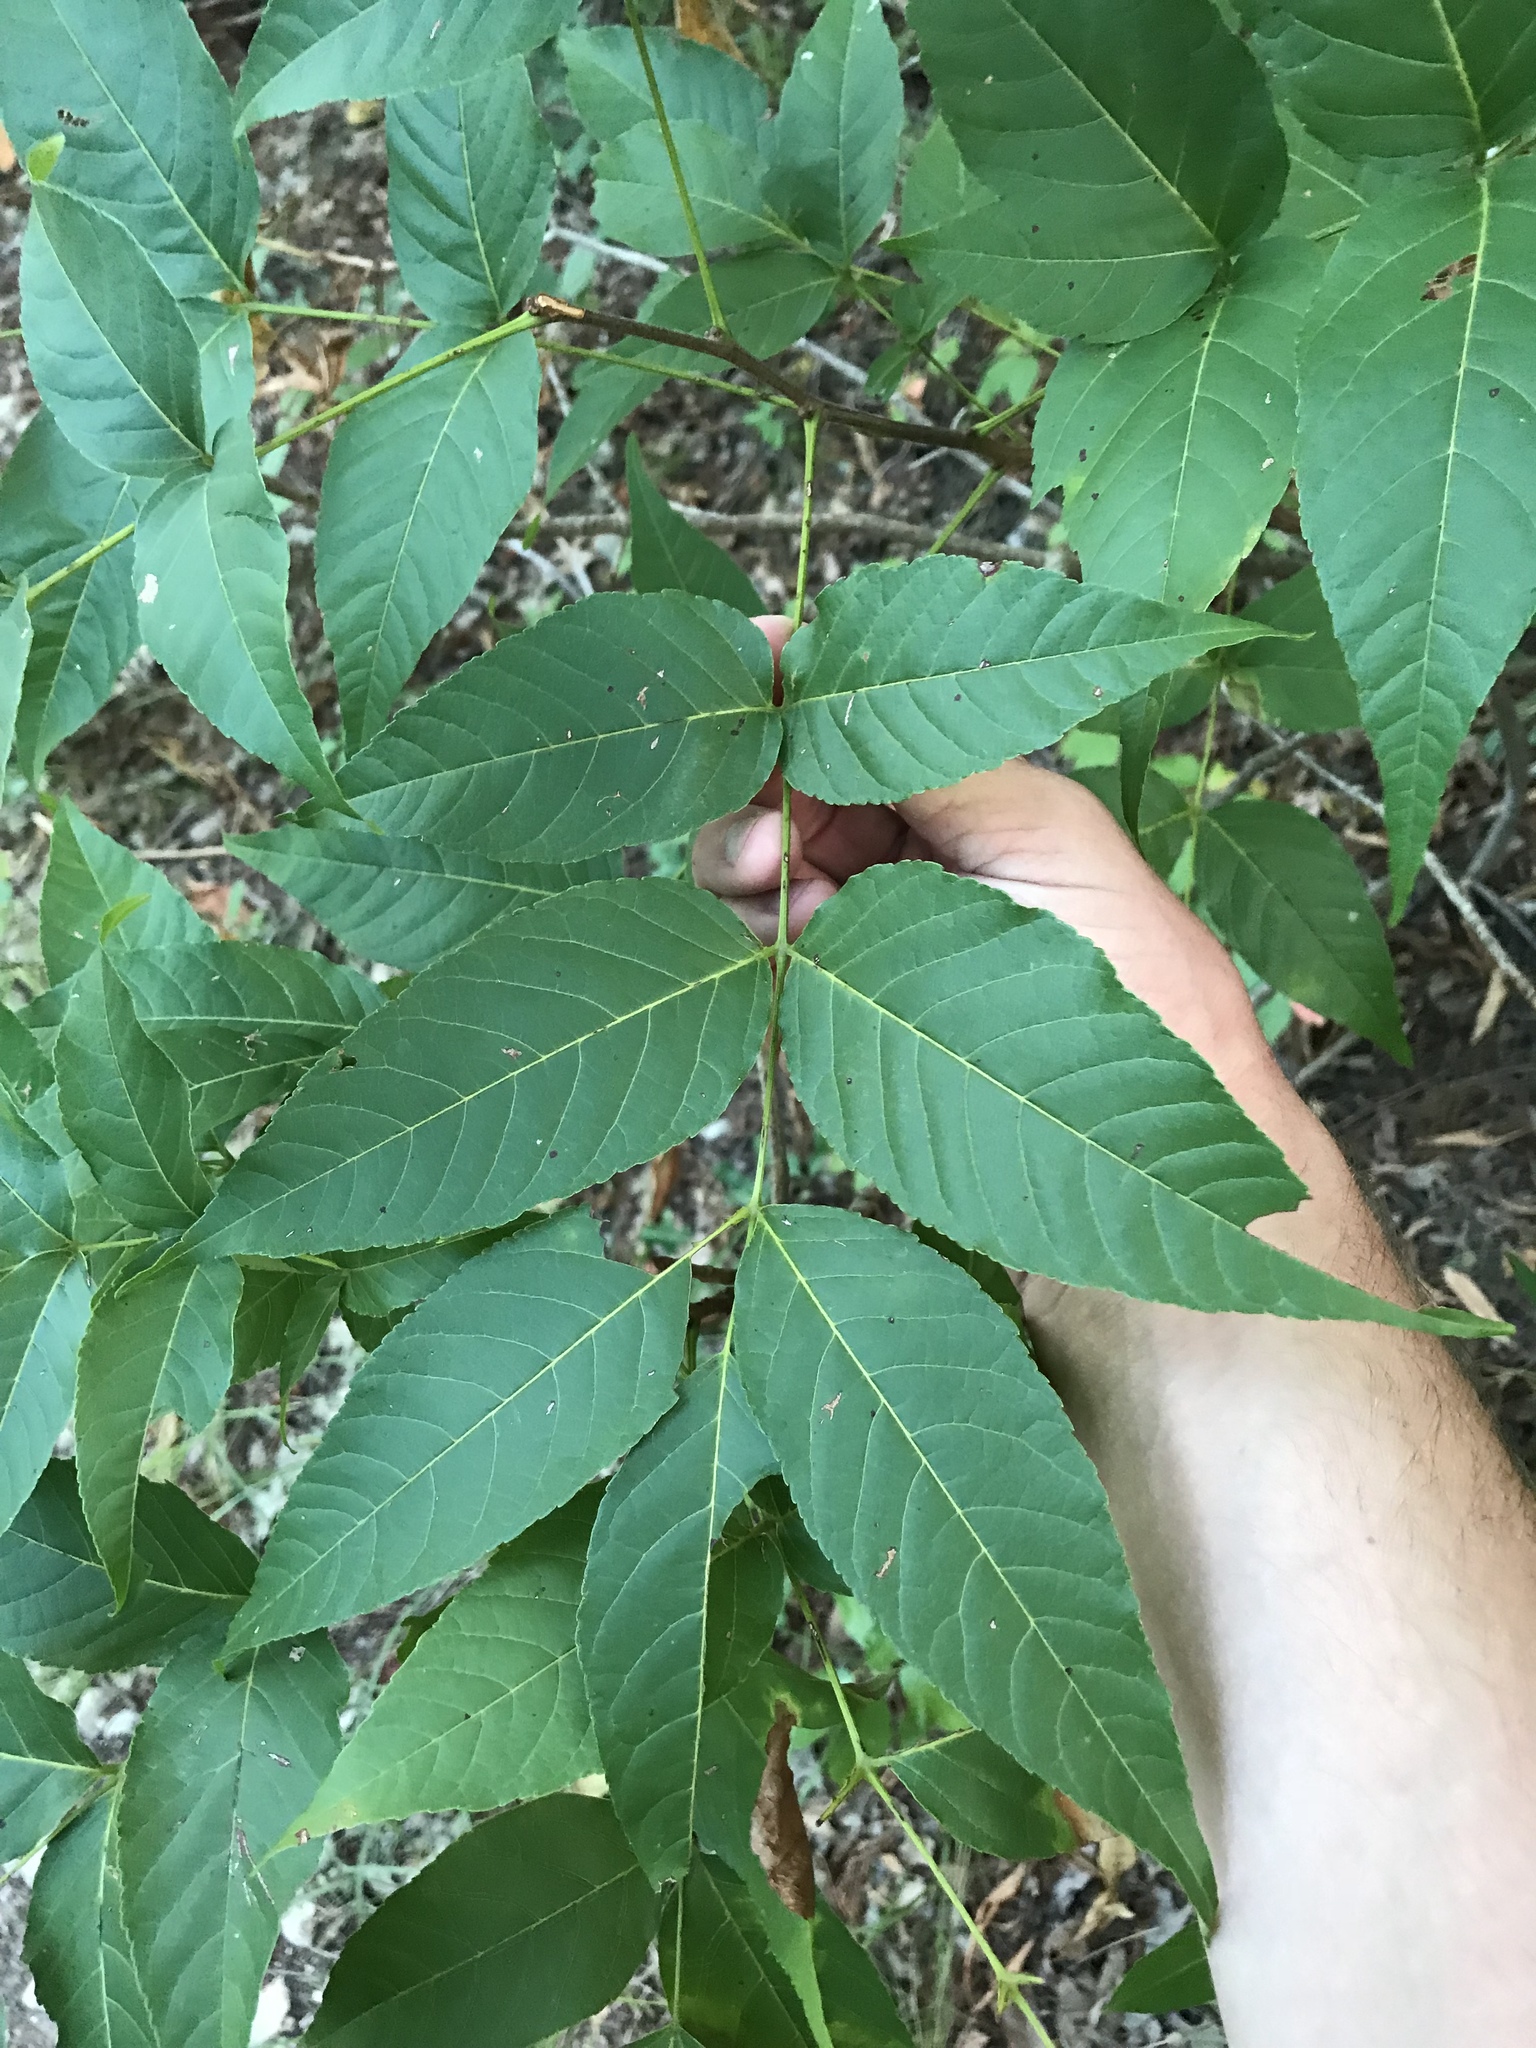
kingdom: Plantae
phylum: Tracheophyta
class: Magnoliopsida
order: Sapindales
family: Sapindaceae
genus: Ungnadia
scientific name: Ungnadia speciosa
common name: Texas-buckeye
